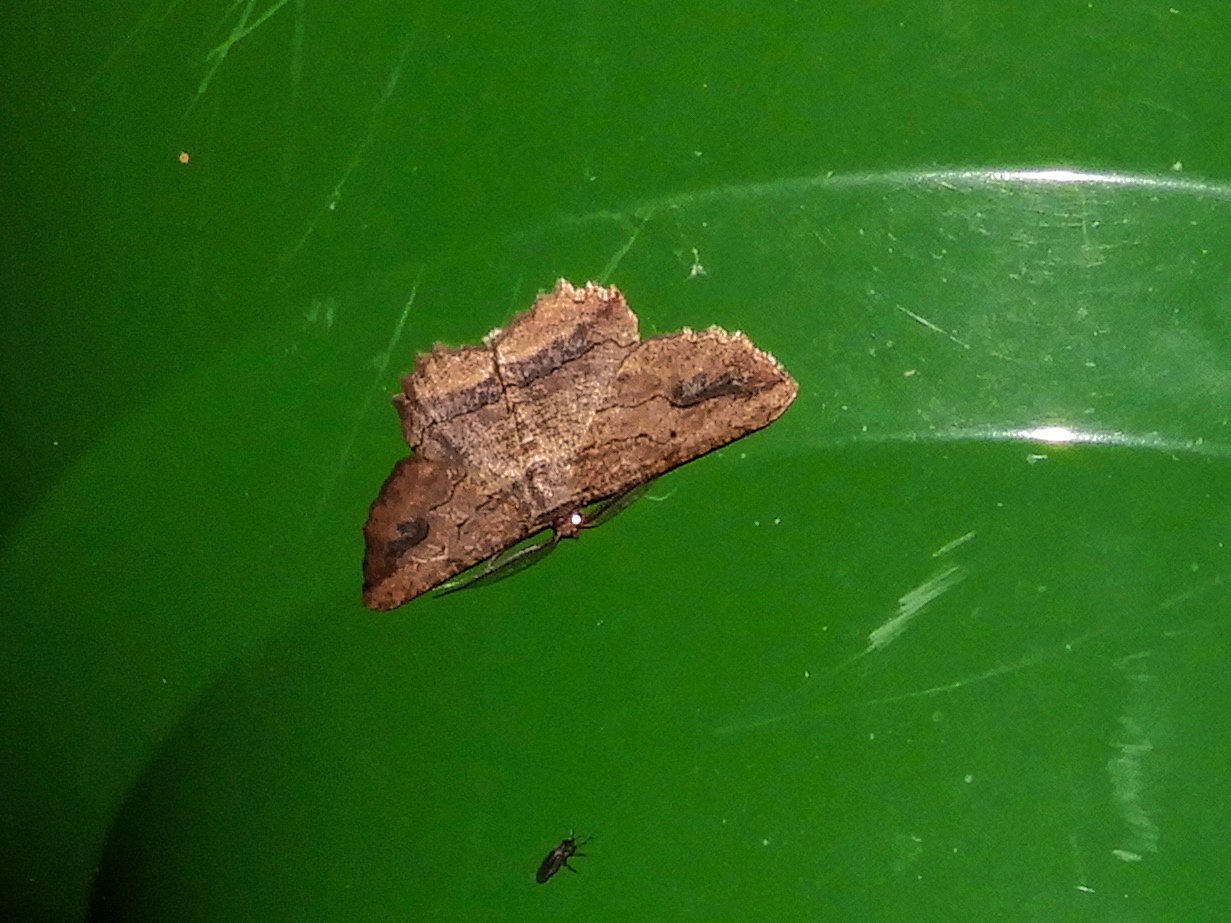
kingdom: Animalia
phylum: Arthropoda
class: Insecta
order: Lepidoptera
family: Geometridae
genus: Menophra
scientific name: Menophra abruptaria
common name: Waved umber
